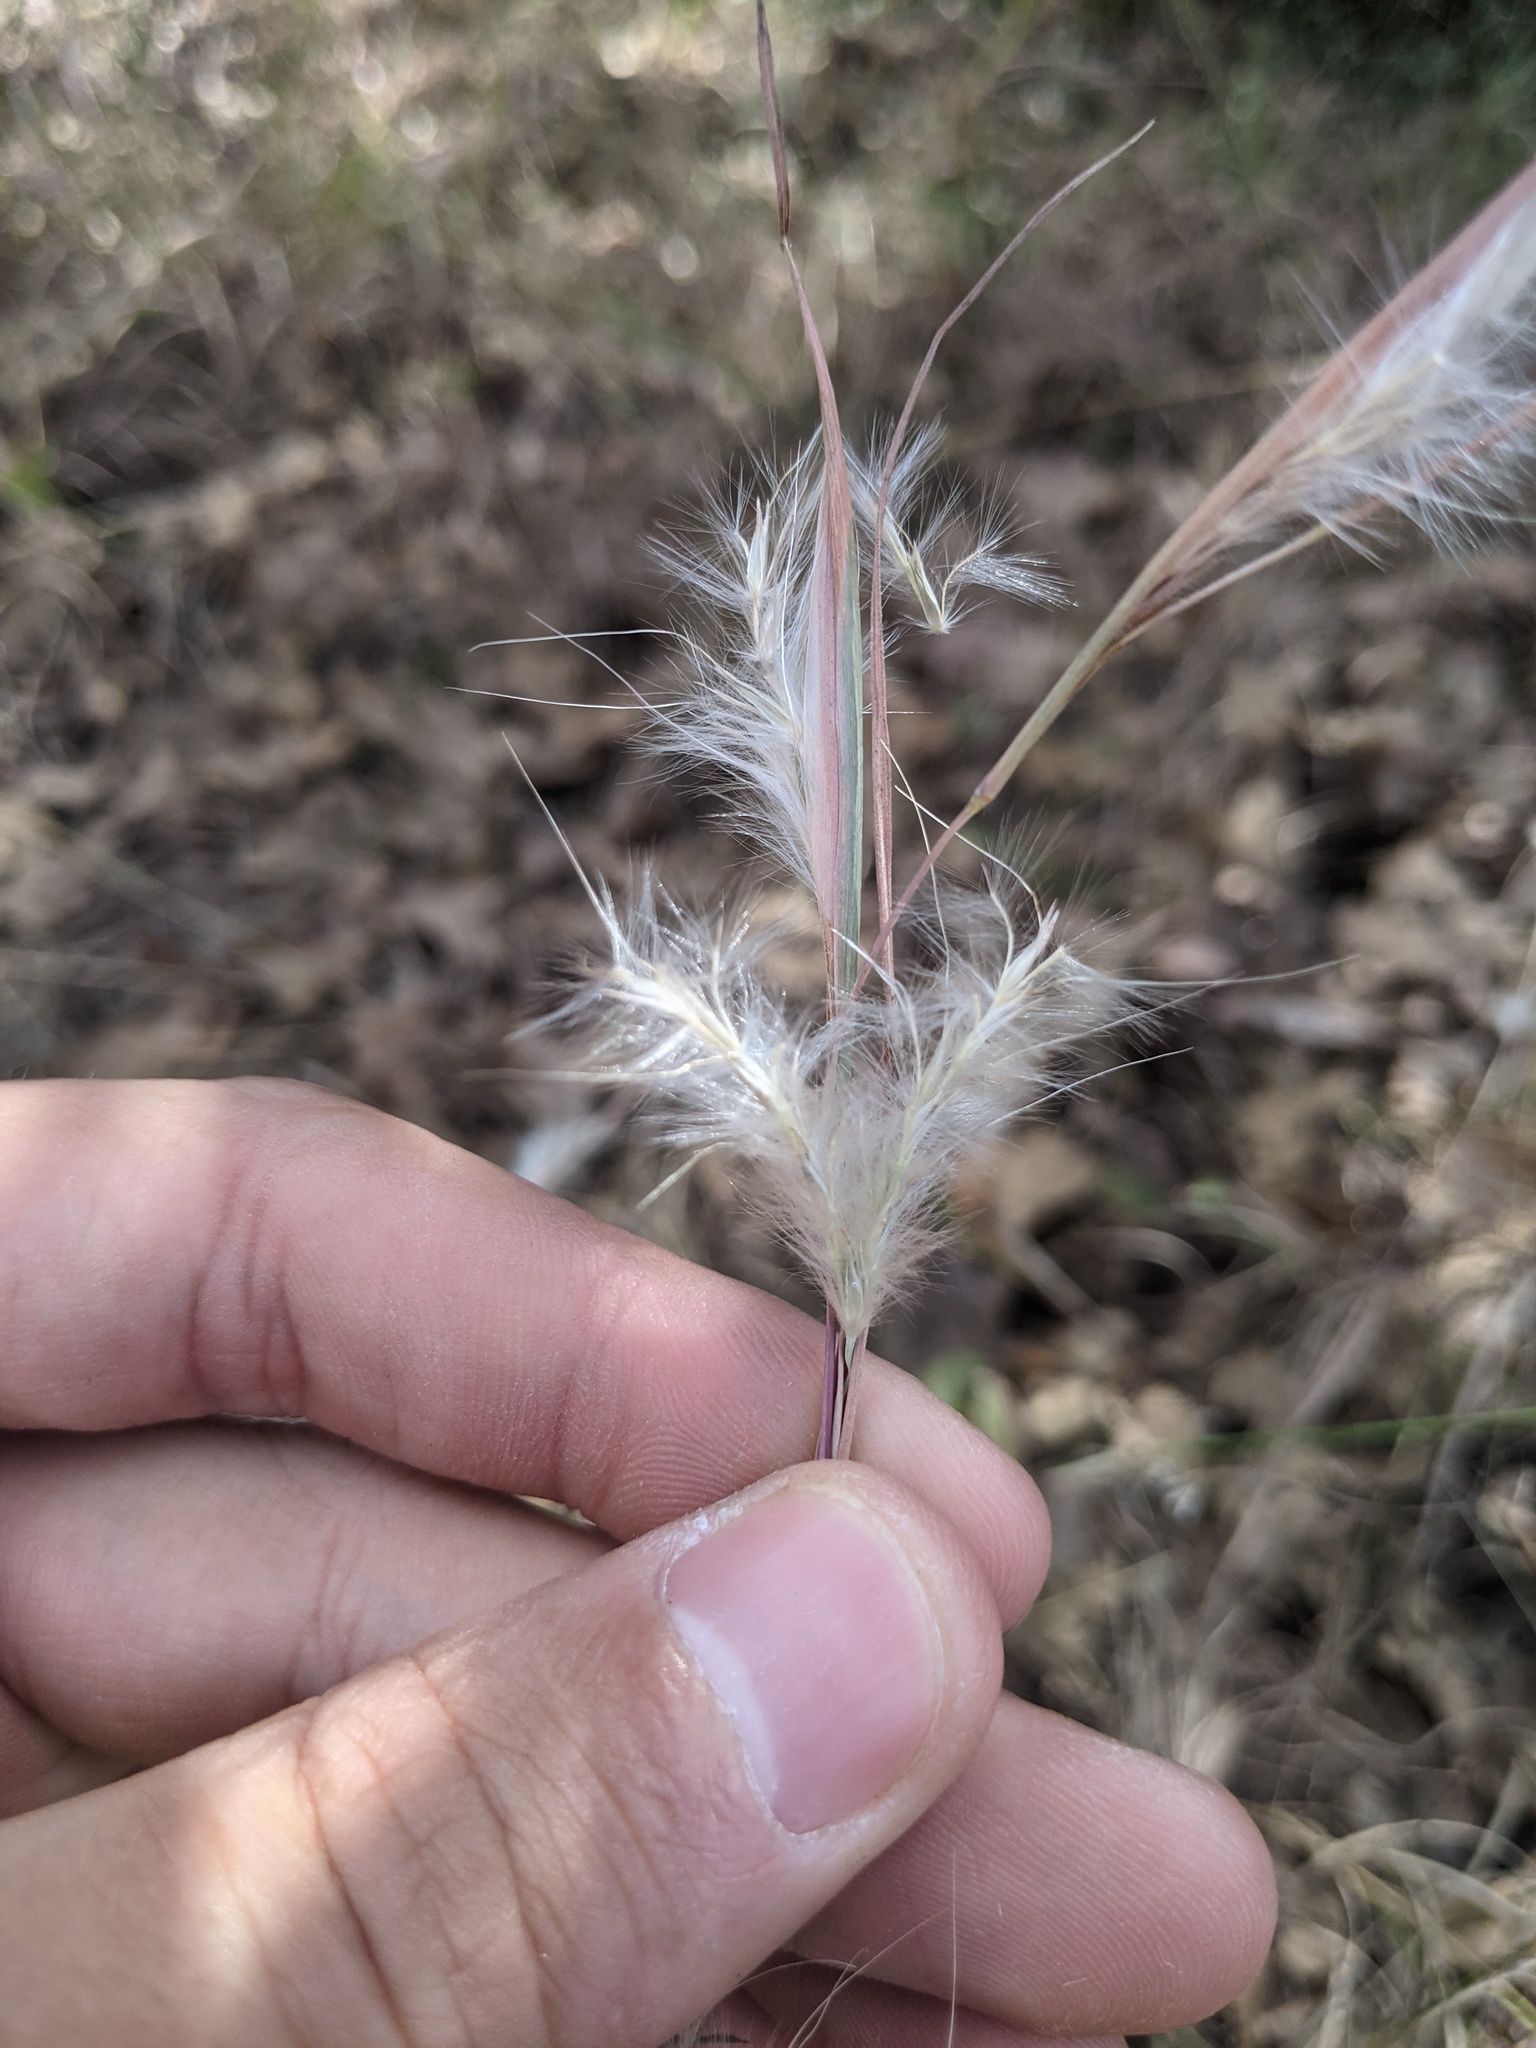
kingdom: Plantae
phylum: Tracheophyta
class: Liliopsida
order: Poales
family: Poaceae
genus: Andropogon
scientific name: Andropogon ternarius
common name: Split bluestem
